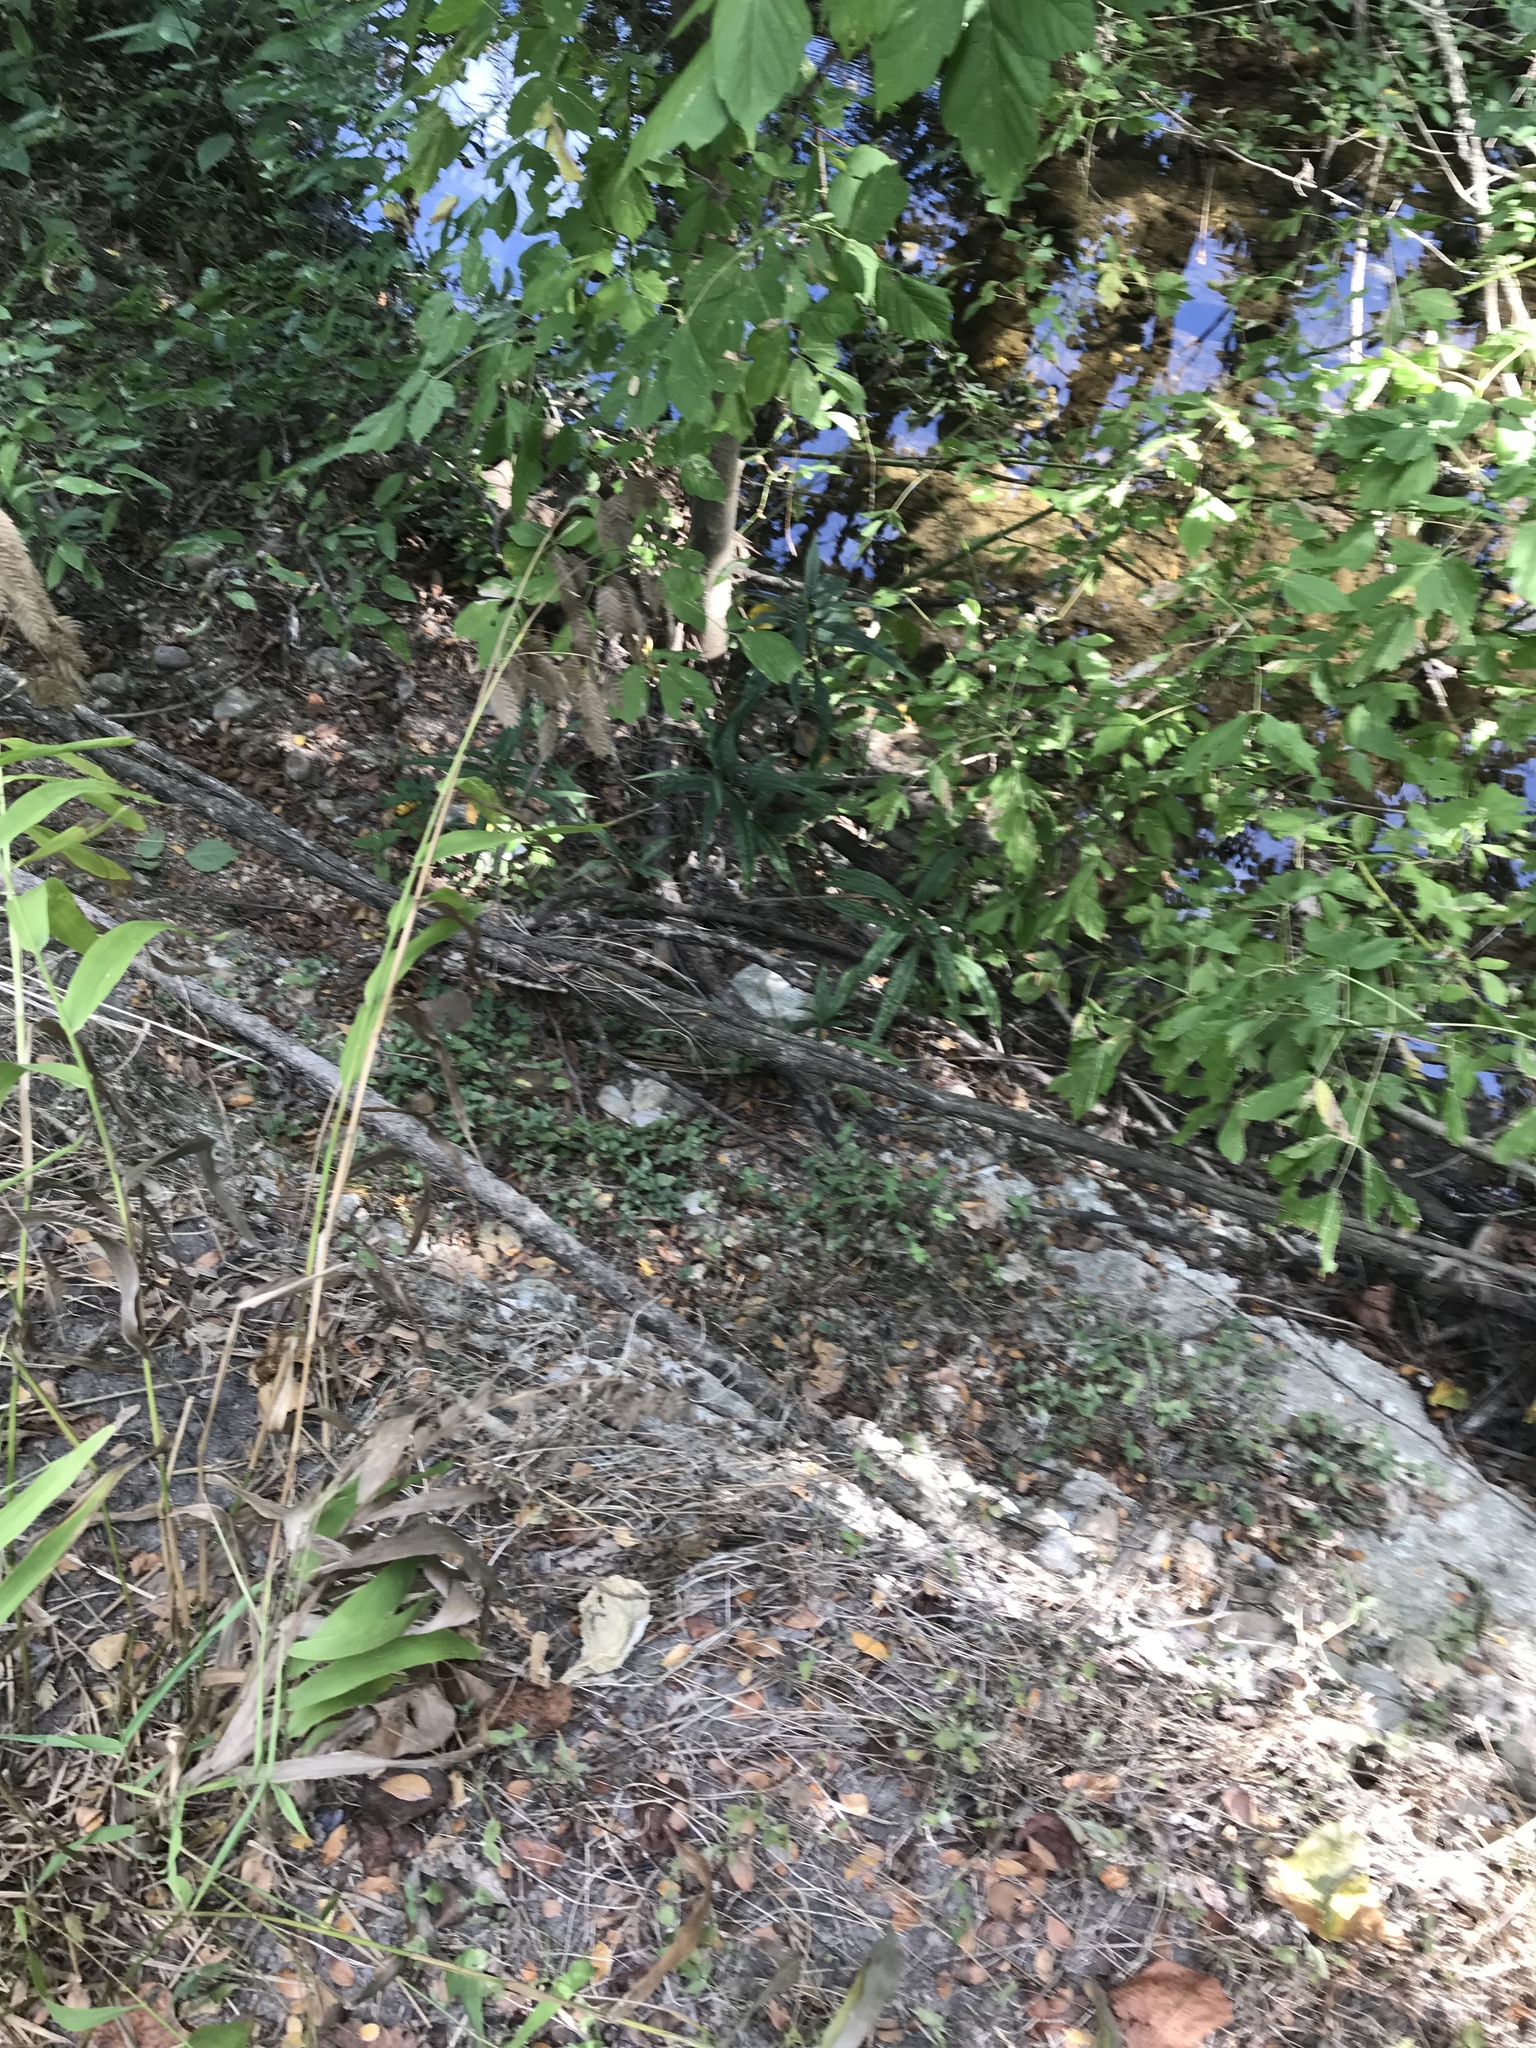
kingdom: Plantae
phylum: Tracheophyta
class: Magnoliopsida
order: Lamiales
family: Acanthaceae
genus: Ruellia
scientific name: Ruellia simplex
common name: Softseed wild petunia
